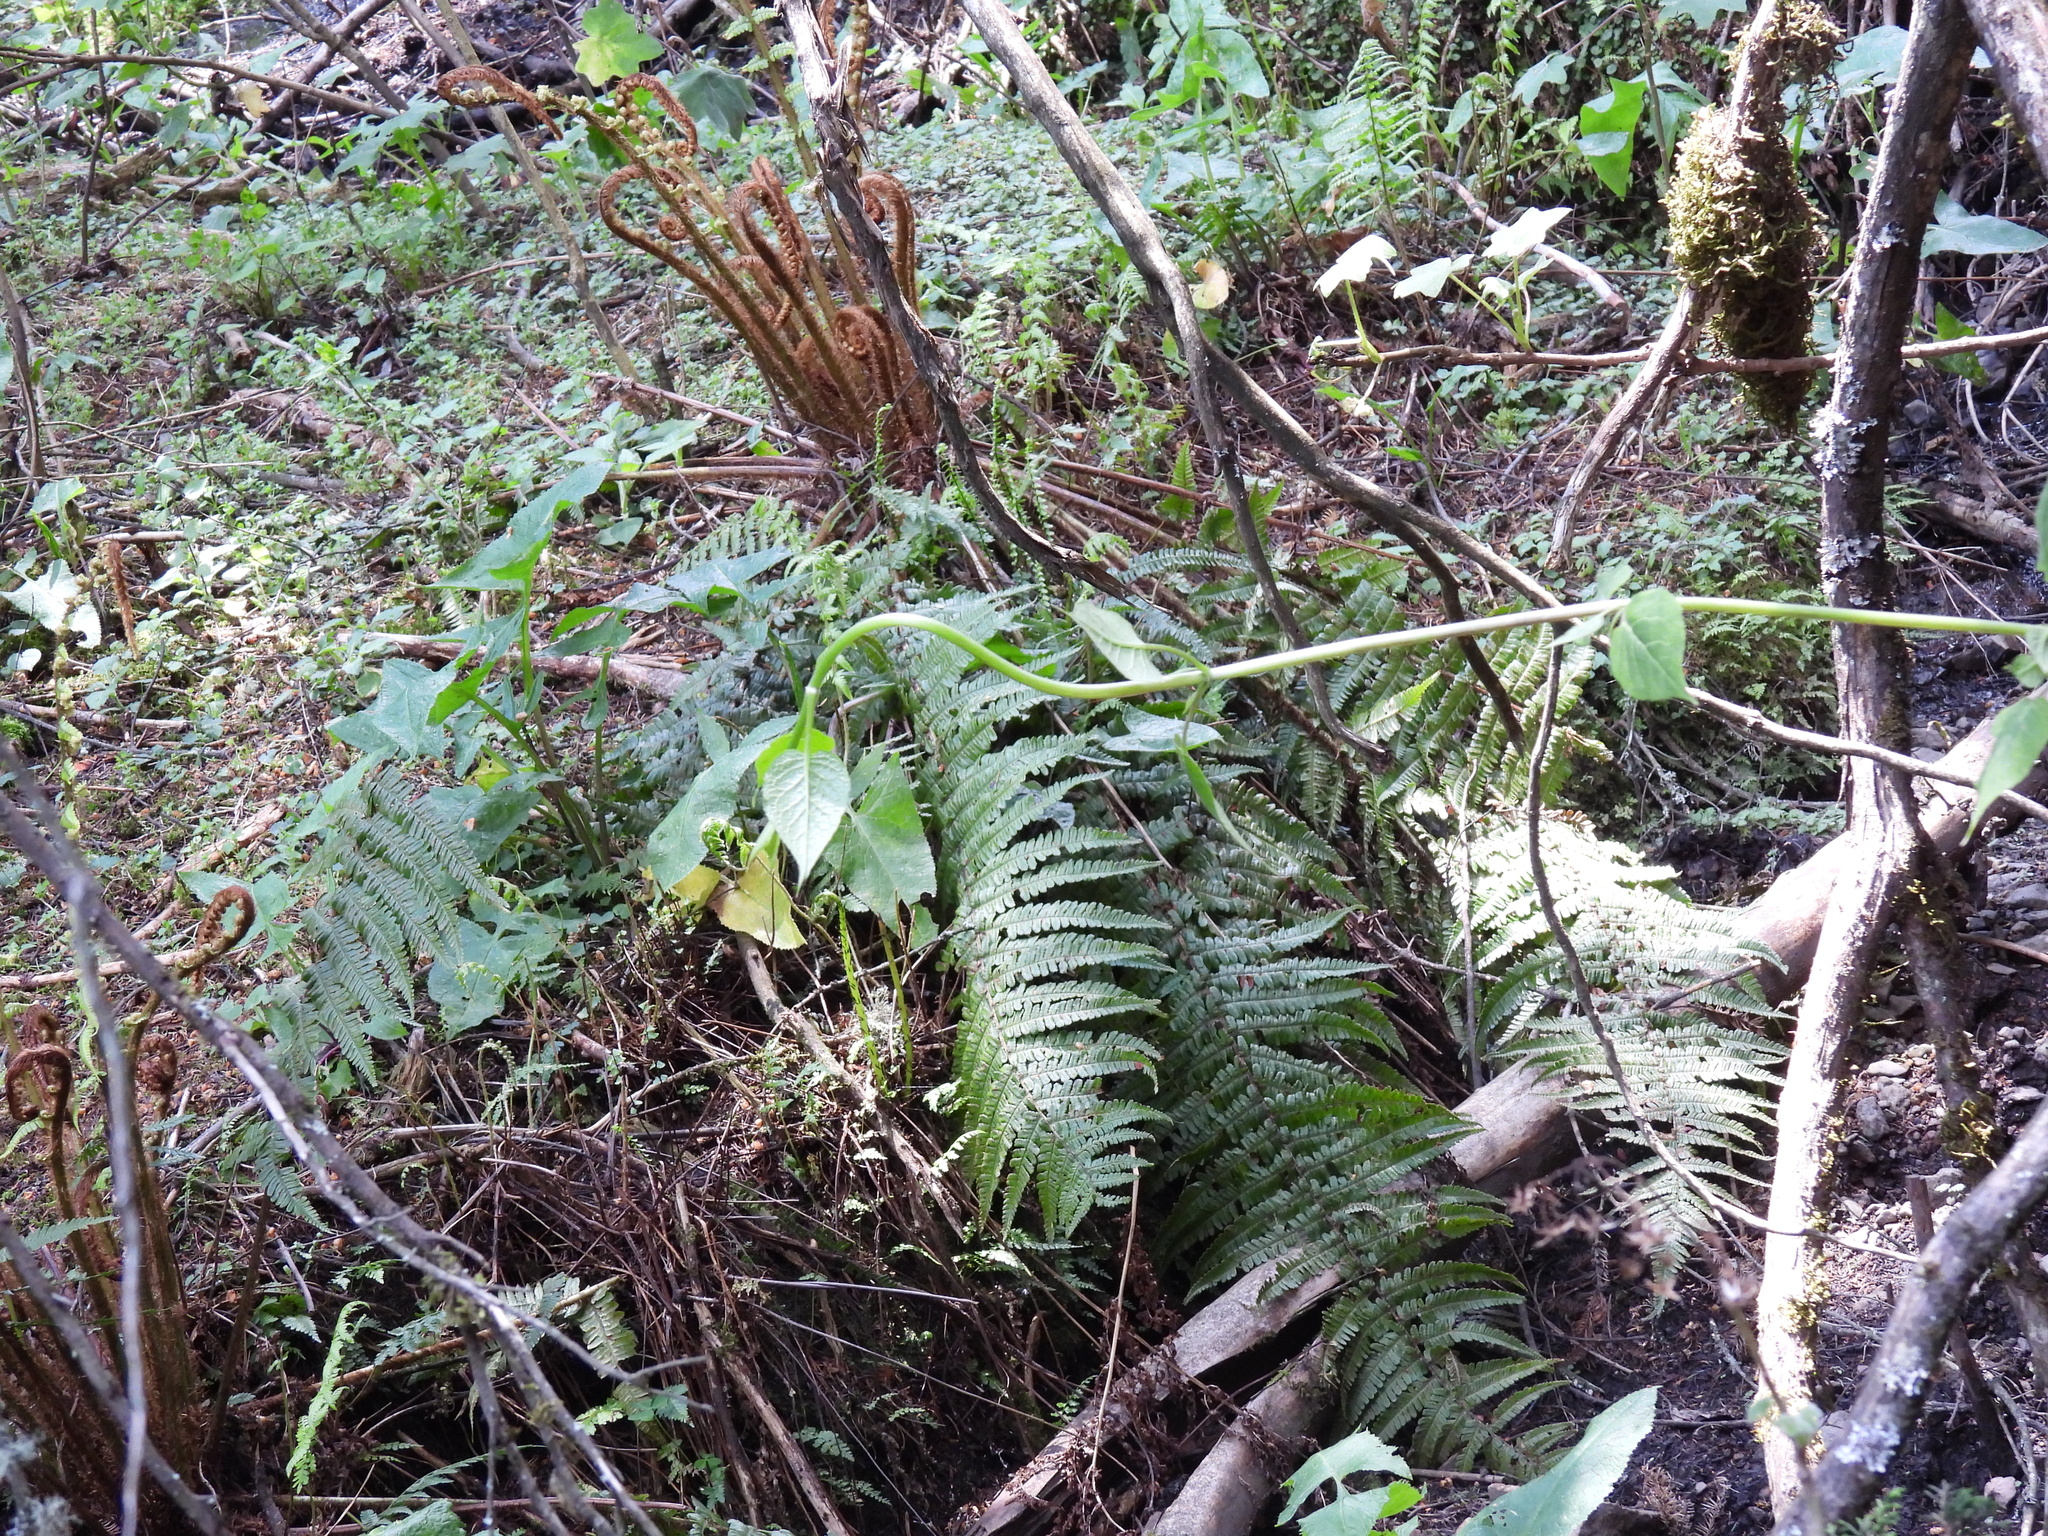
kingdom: Plantae
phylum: Tracheophyta
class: Polypodiopsida
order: Polypodiales
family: Dryopteridaceae
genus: Dryopteris
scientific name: Dryopteris wallichiana
